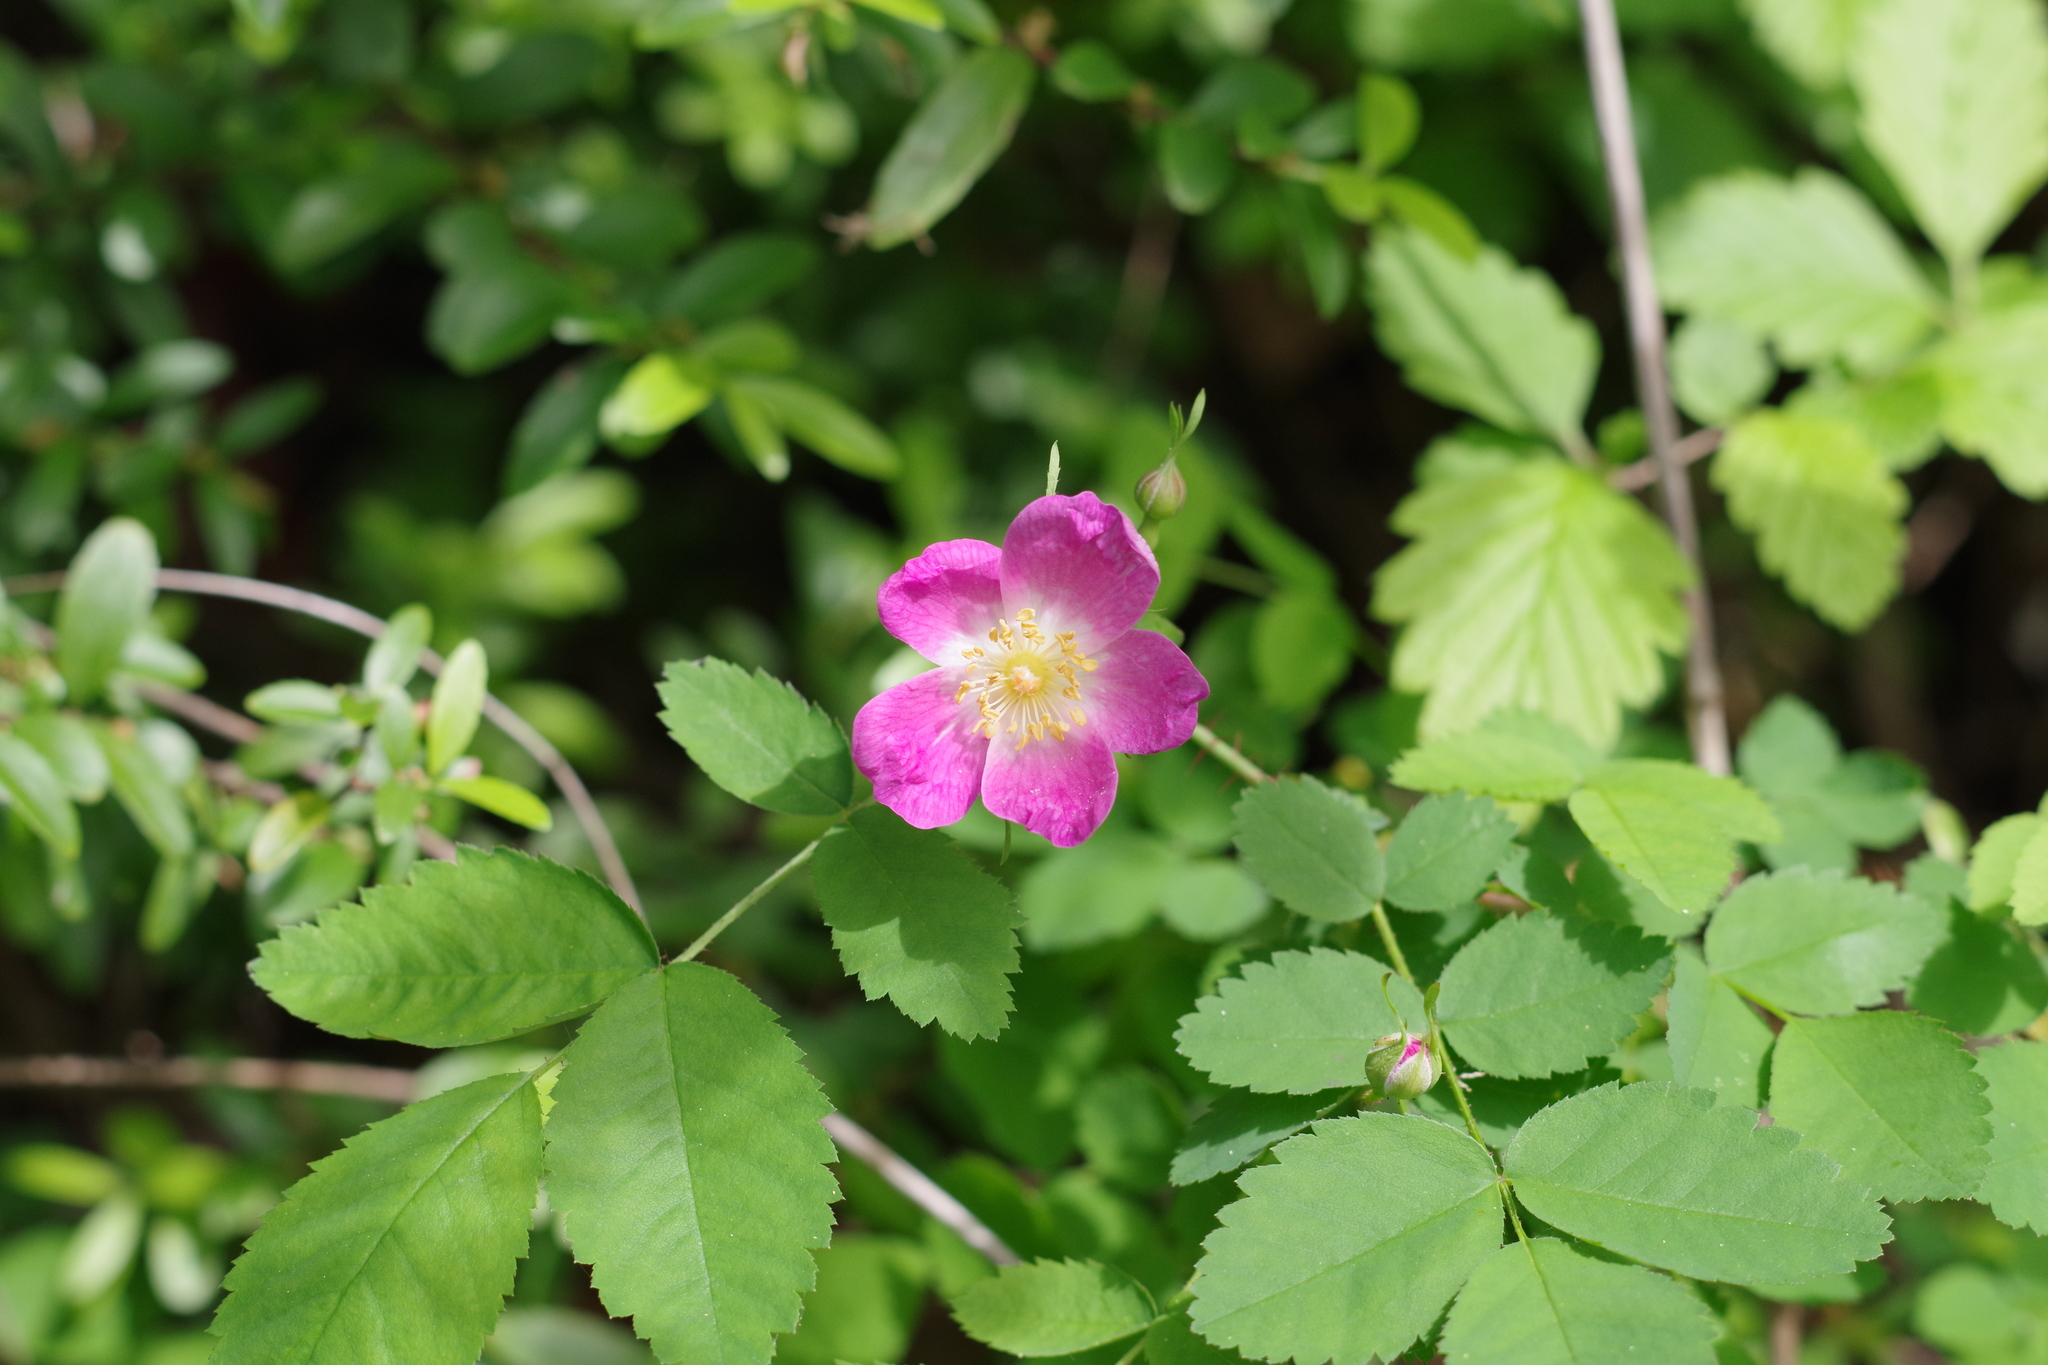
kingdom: Plantae
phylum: Tracheophyta
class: Magnoliopsida
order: Rosales
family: Rosaceae
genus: Rosa
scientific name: Rosa gymnocarpa
